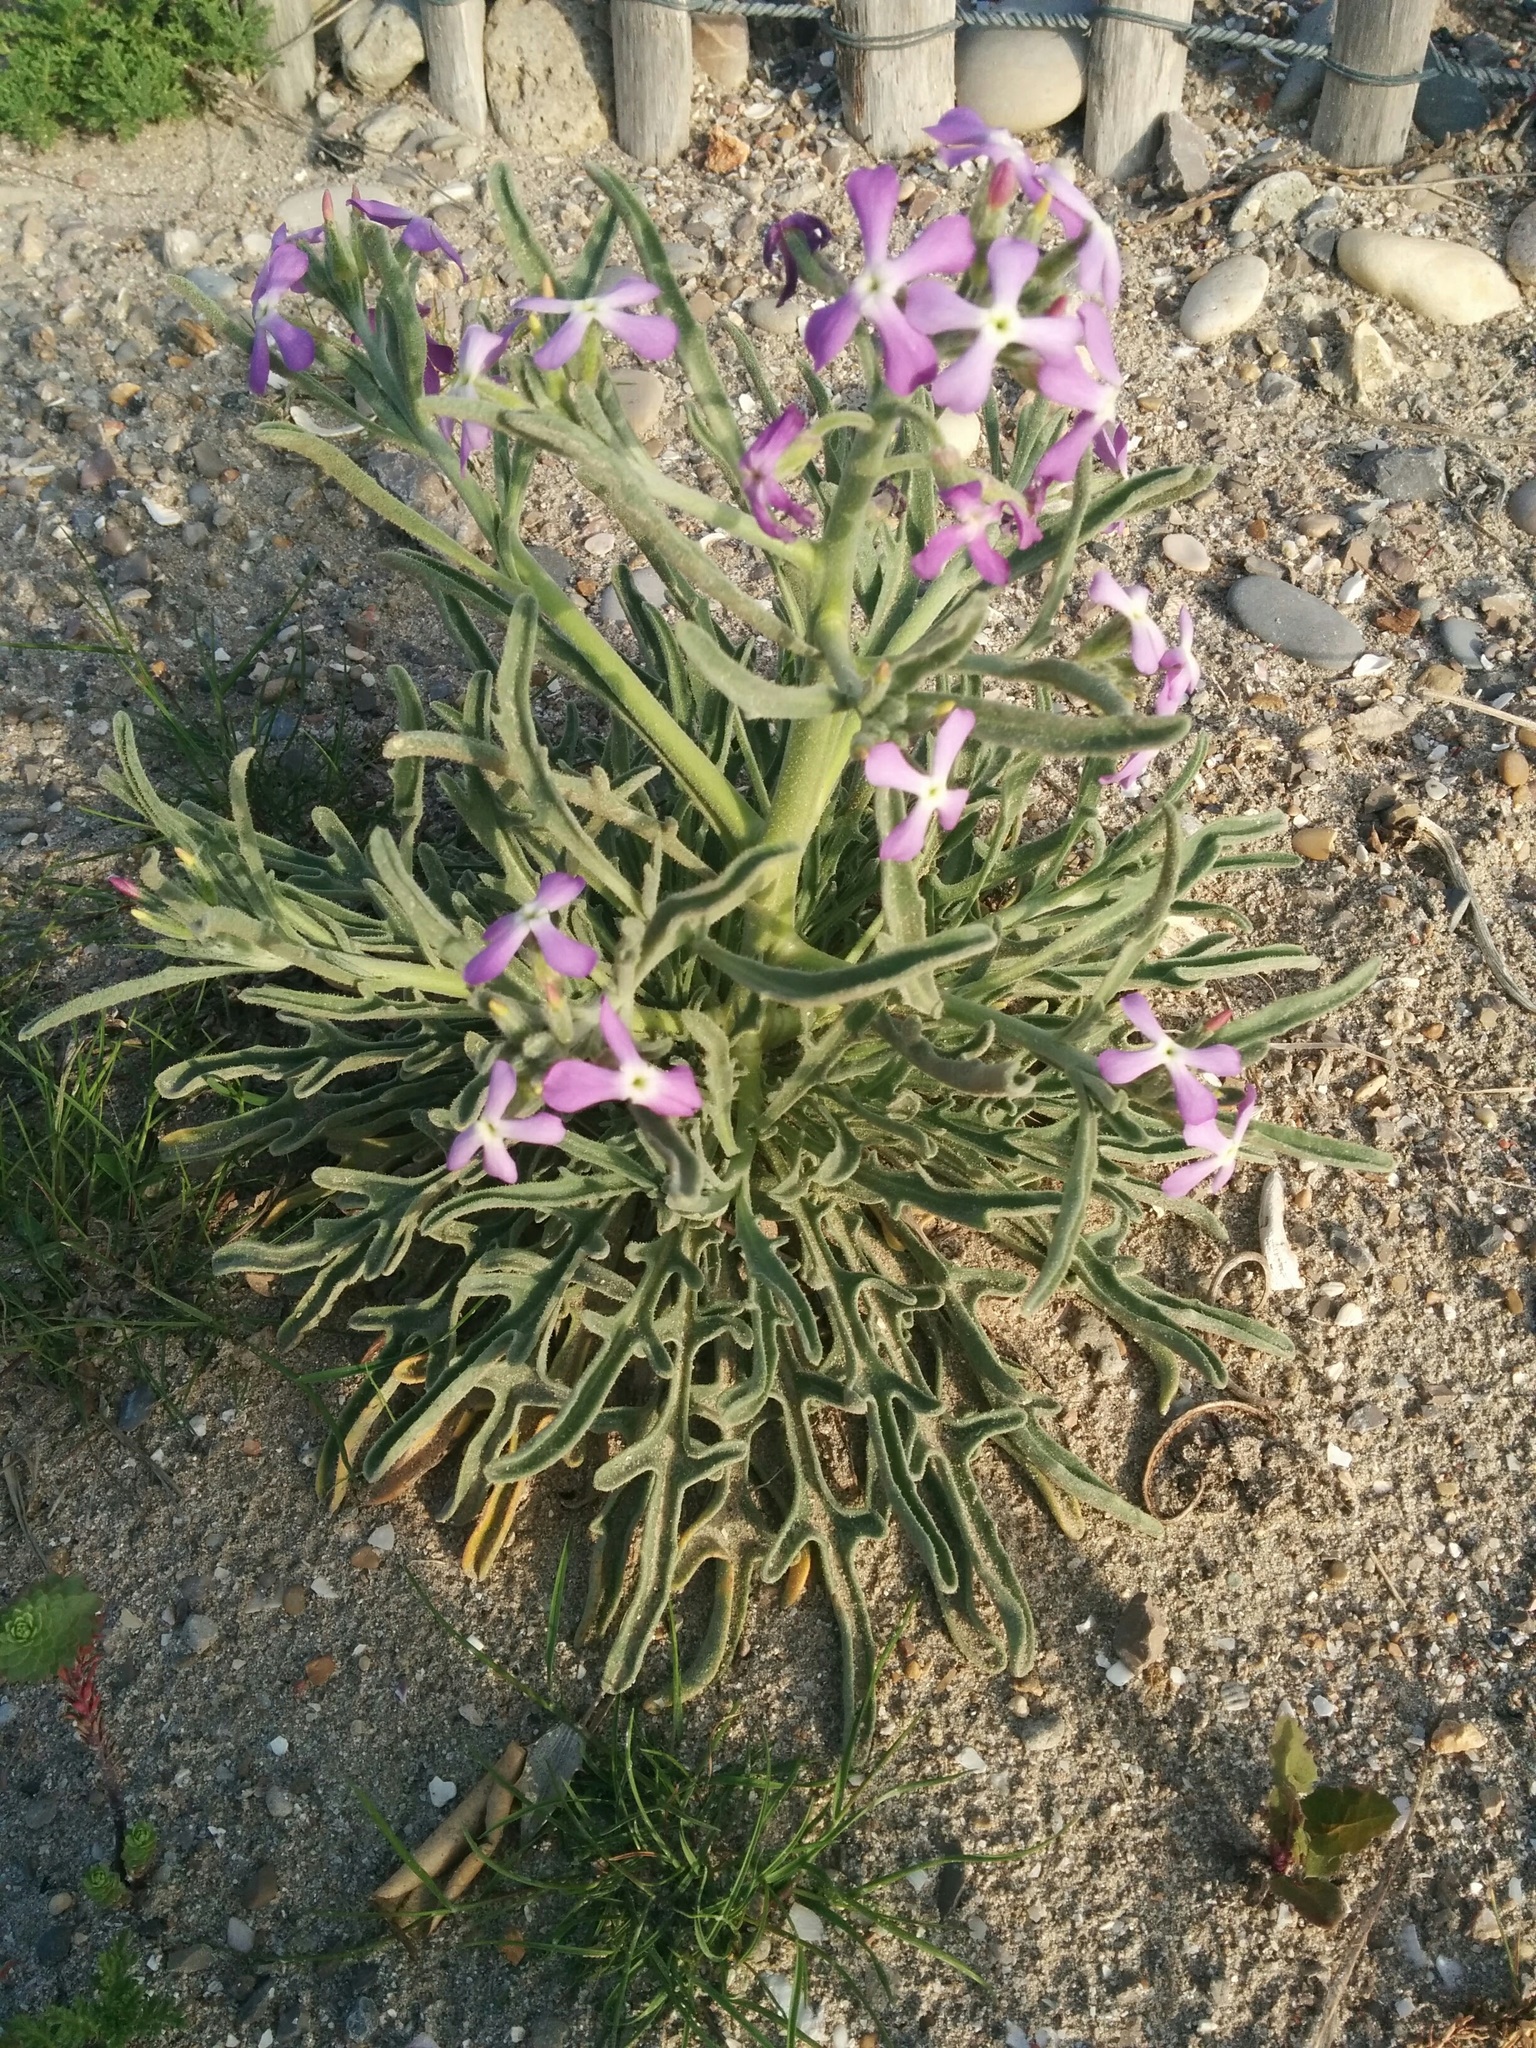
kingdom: Plantae
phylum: Tracheophyta
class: Magnoliopsida
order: Brassicales
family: Brassicaceae
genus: Matthiola
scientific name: Matthiola sinuata
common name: Sea stock
